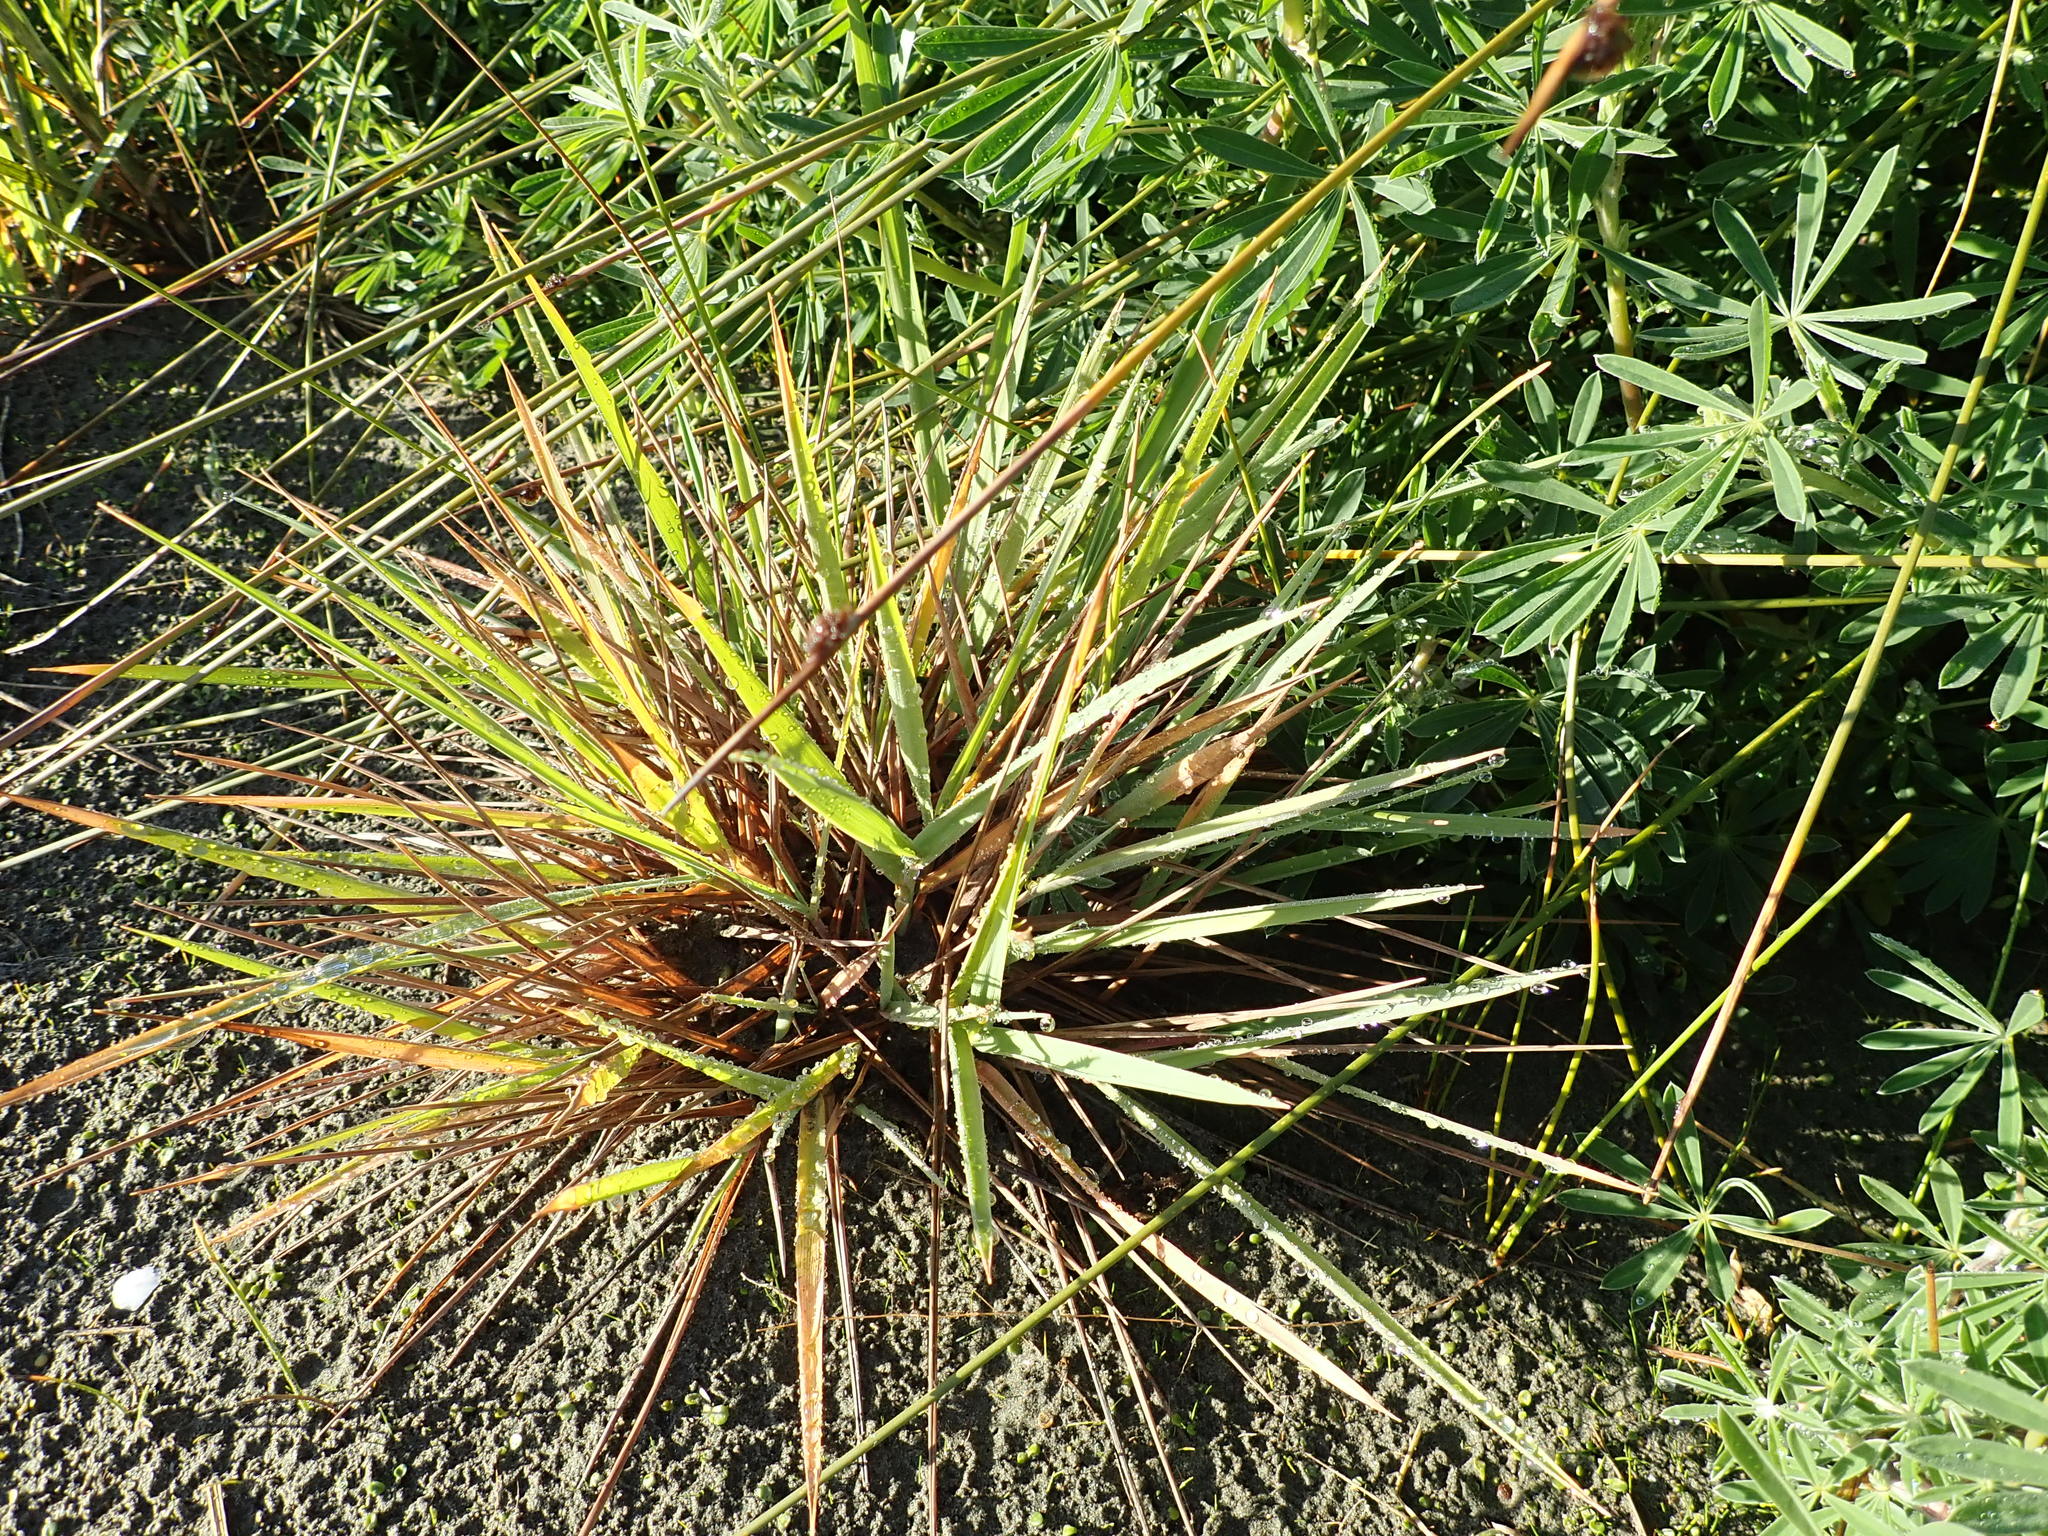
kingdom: Plantae
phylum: Tracheophyta
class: Liliopsida
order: Poales
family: Poaceae
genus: Lachnagrostis
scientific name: Lachnagrostis billardierei
